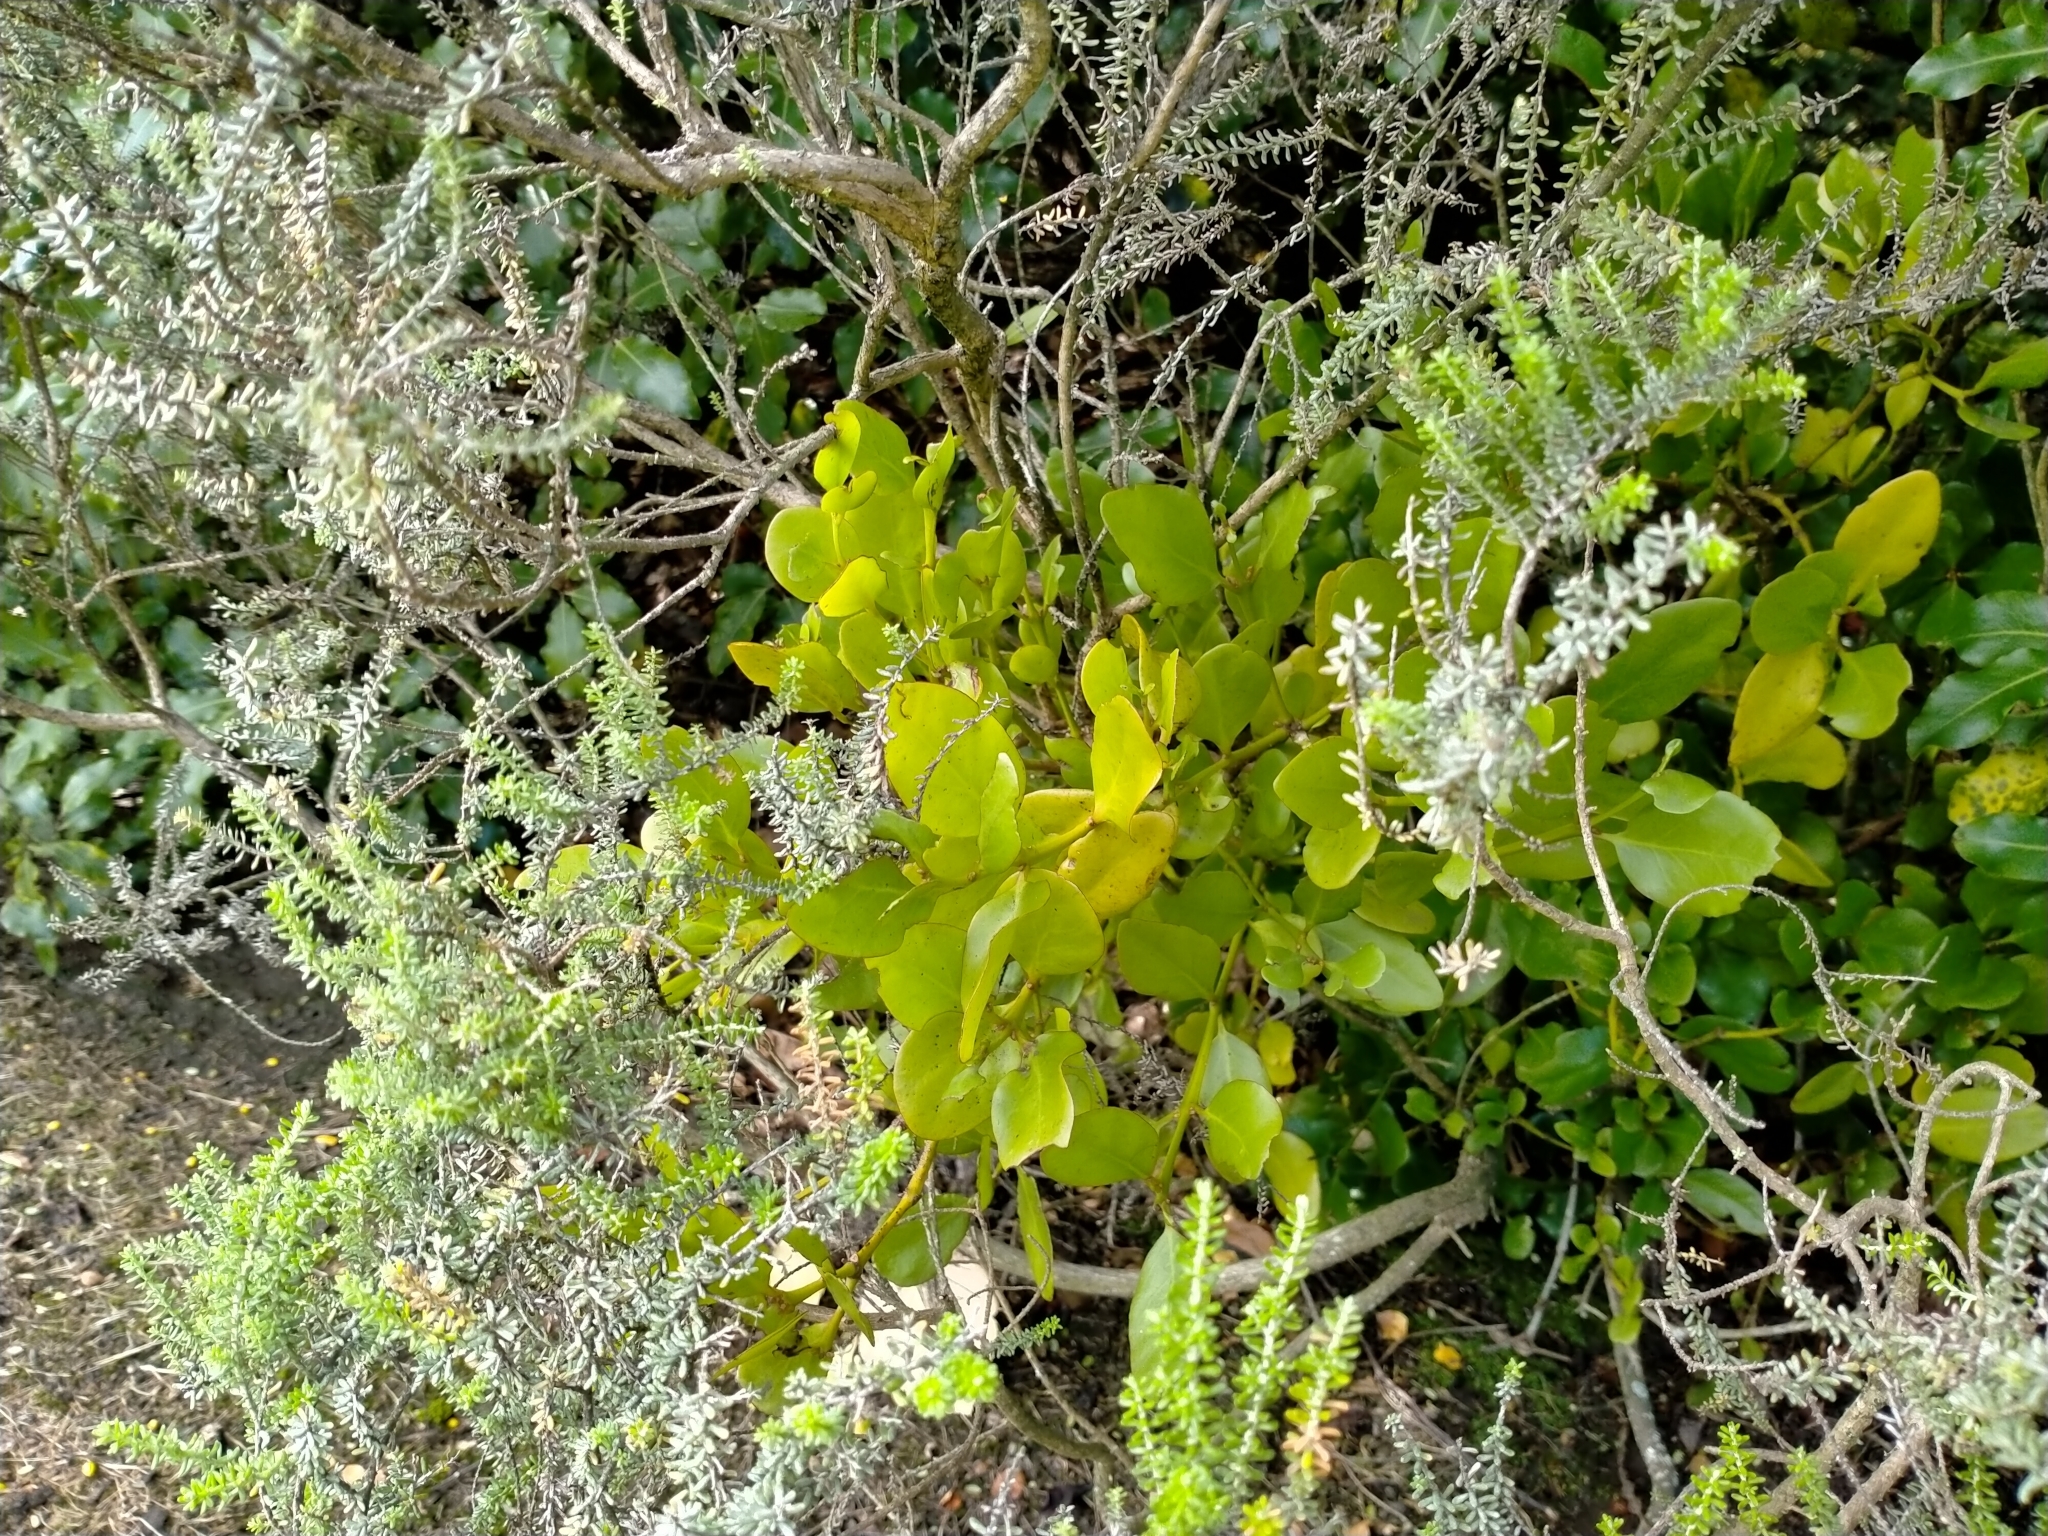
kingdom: Plantae
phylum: Tracheophyta
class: Magnoliopsida
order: Santalales
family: Loranthaceae
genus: Ileostylus
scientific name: Ileostylus micranthus
